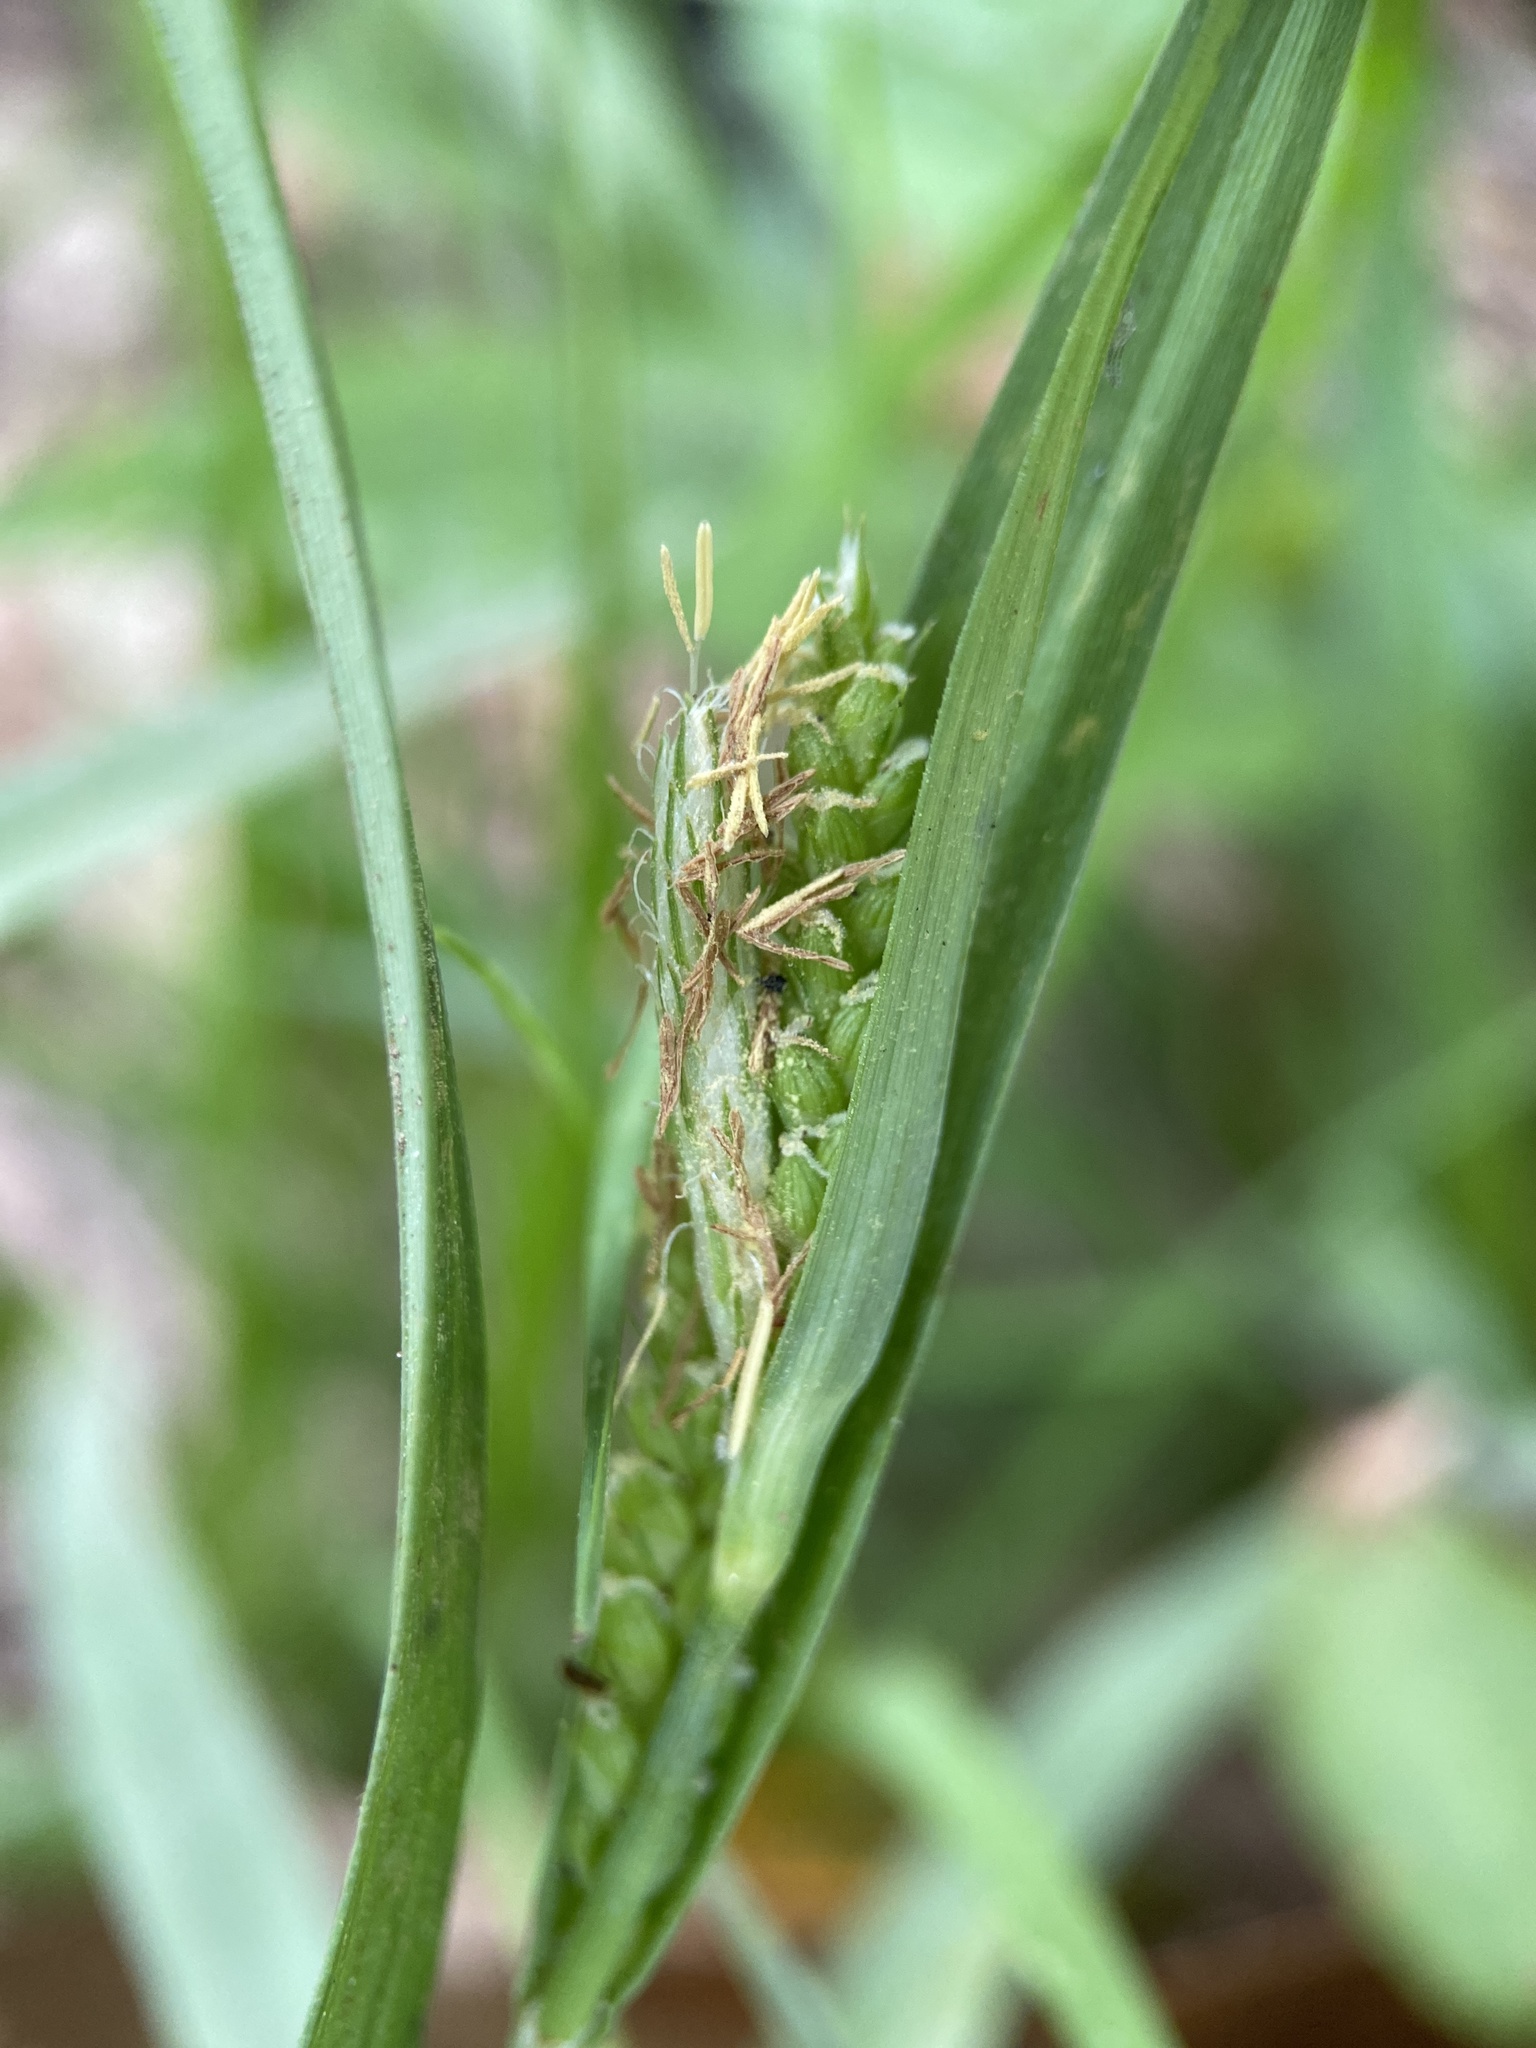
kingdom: Plantae
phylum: Tracheophyta
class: Liliopsida
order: Poales
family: Cyperaceae
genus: Carex
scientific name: Carex glaucodea
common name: Blue sedge
